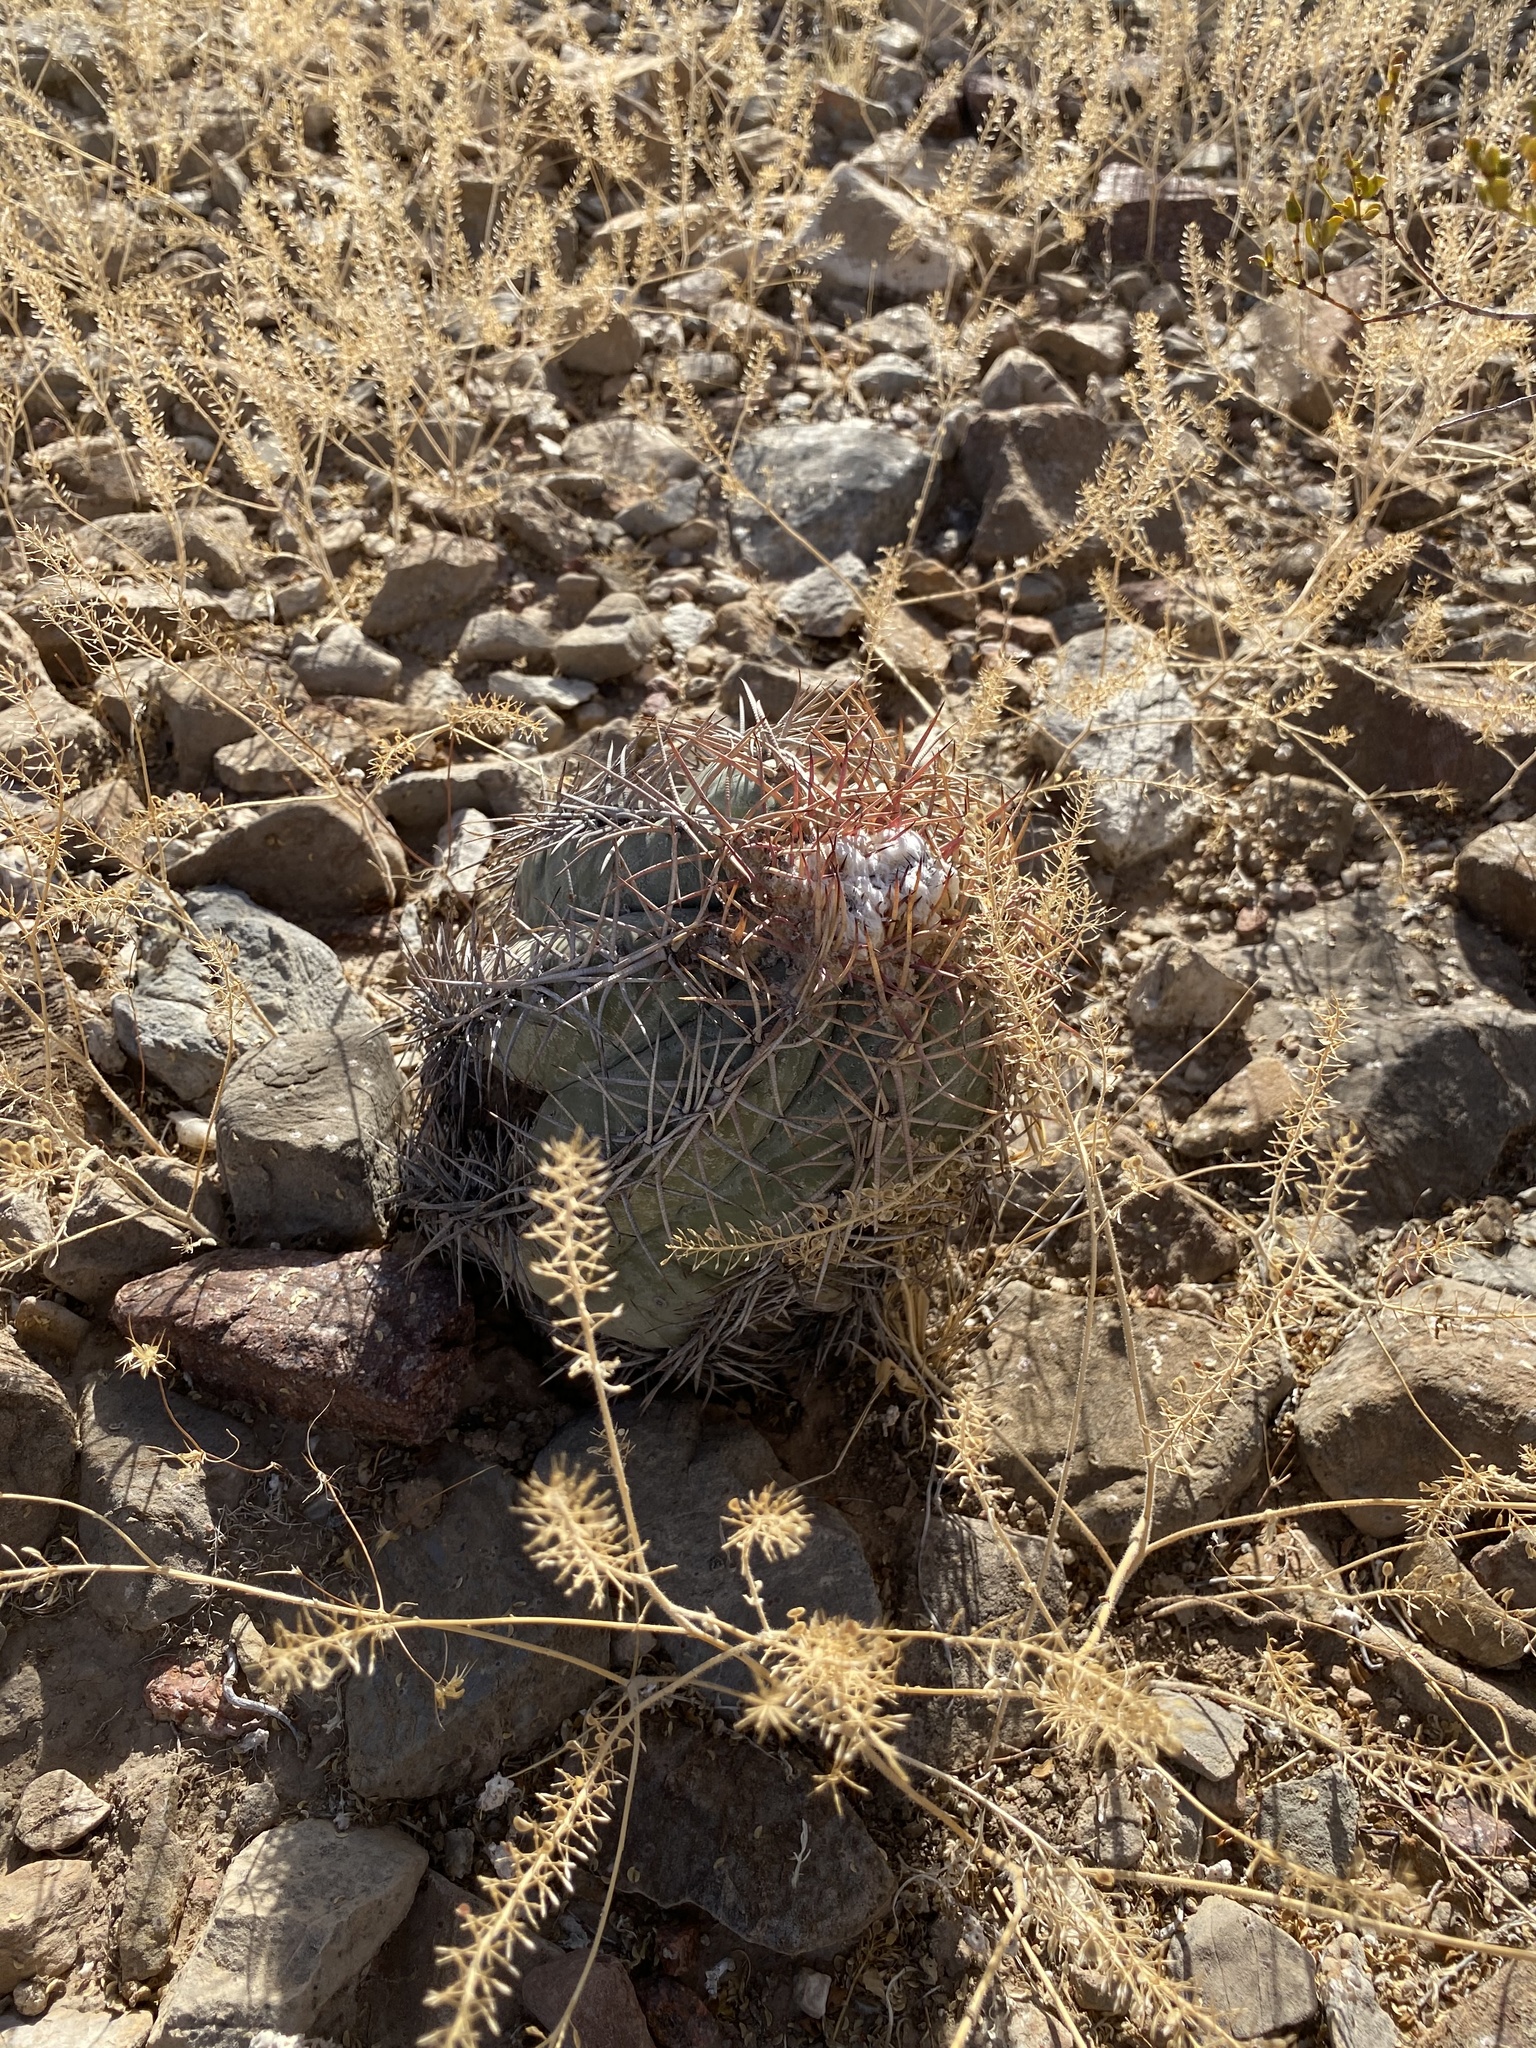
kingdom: Plantae
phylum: Tracheophyta
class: Magnoliopsida
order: Caryophyllales
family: Cactaceae
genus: Echinocactus
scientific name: Echinocactus horizonthalonius
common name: Devilshead
